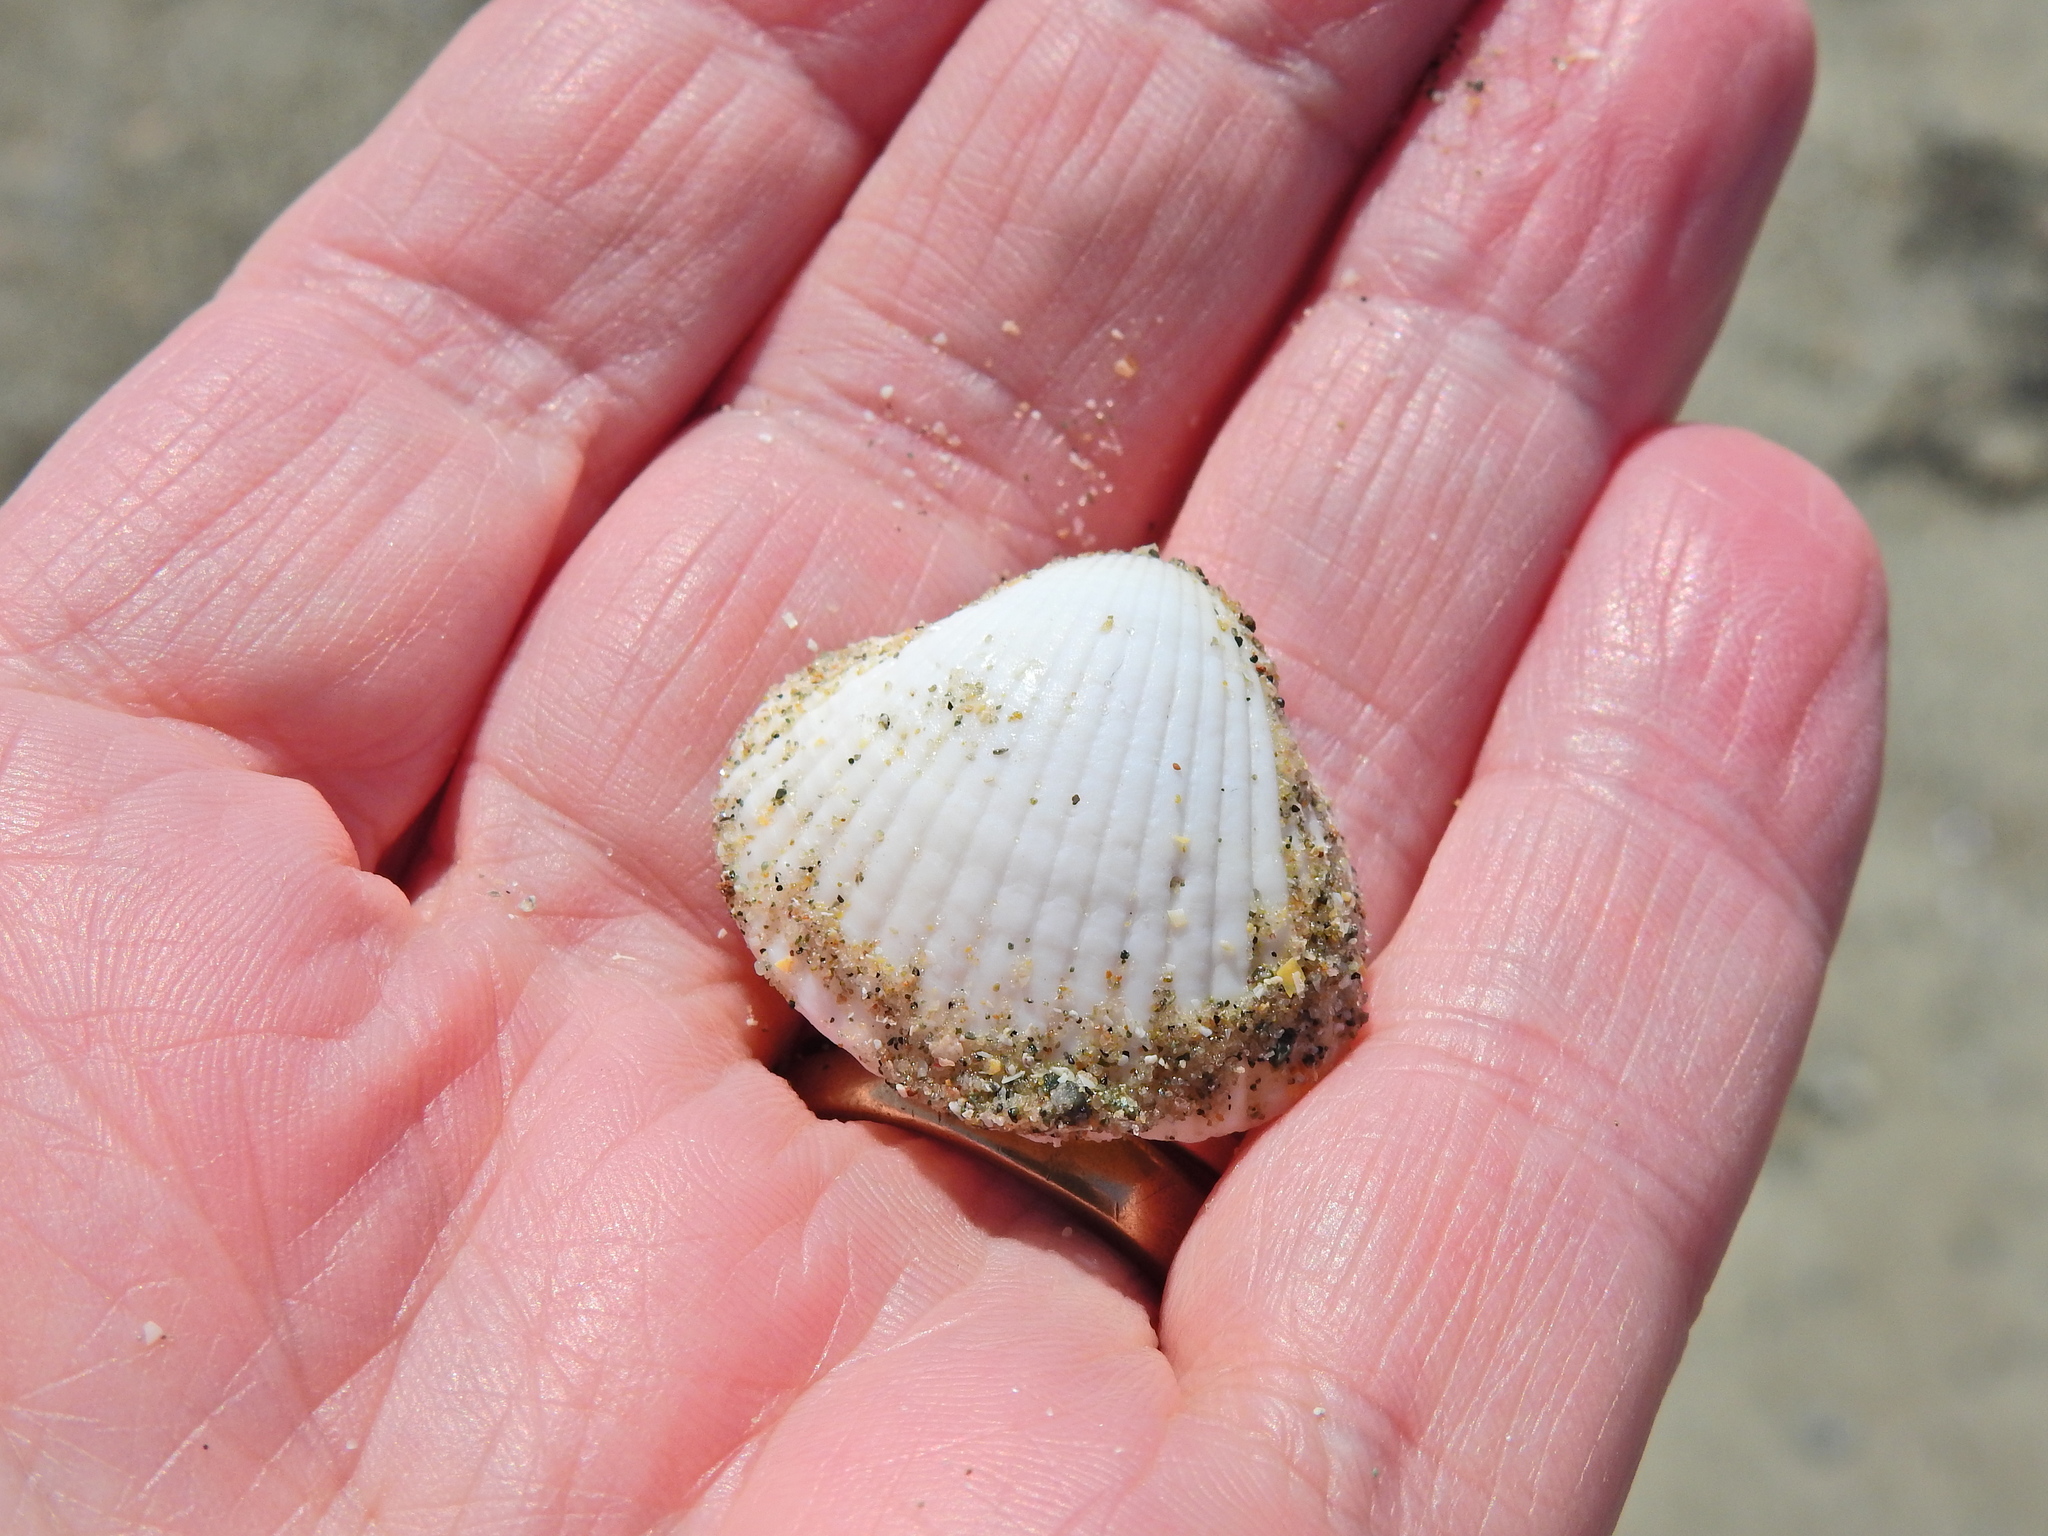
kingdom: Animalia
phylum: Mollusca
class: Bivalvia
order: Cardiida
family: Cardiidae
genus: Cerastoderma
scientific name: Cerastoderma edule
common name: Common cockle
